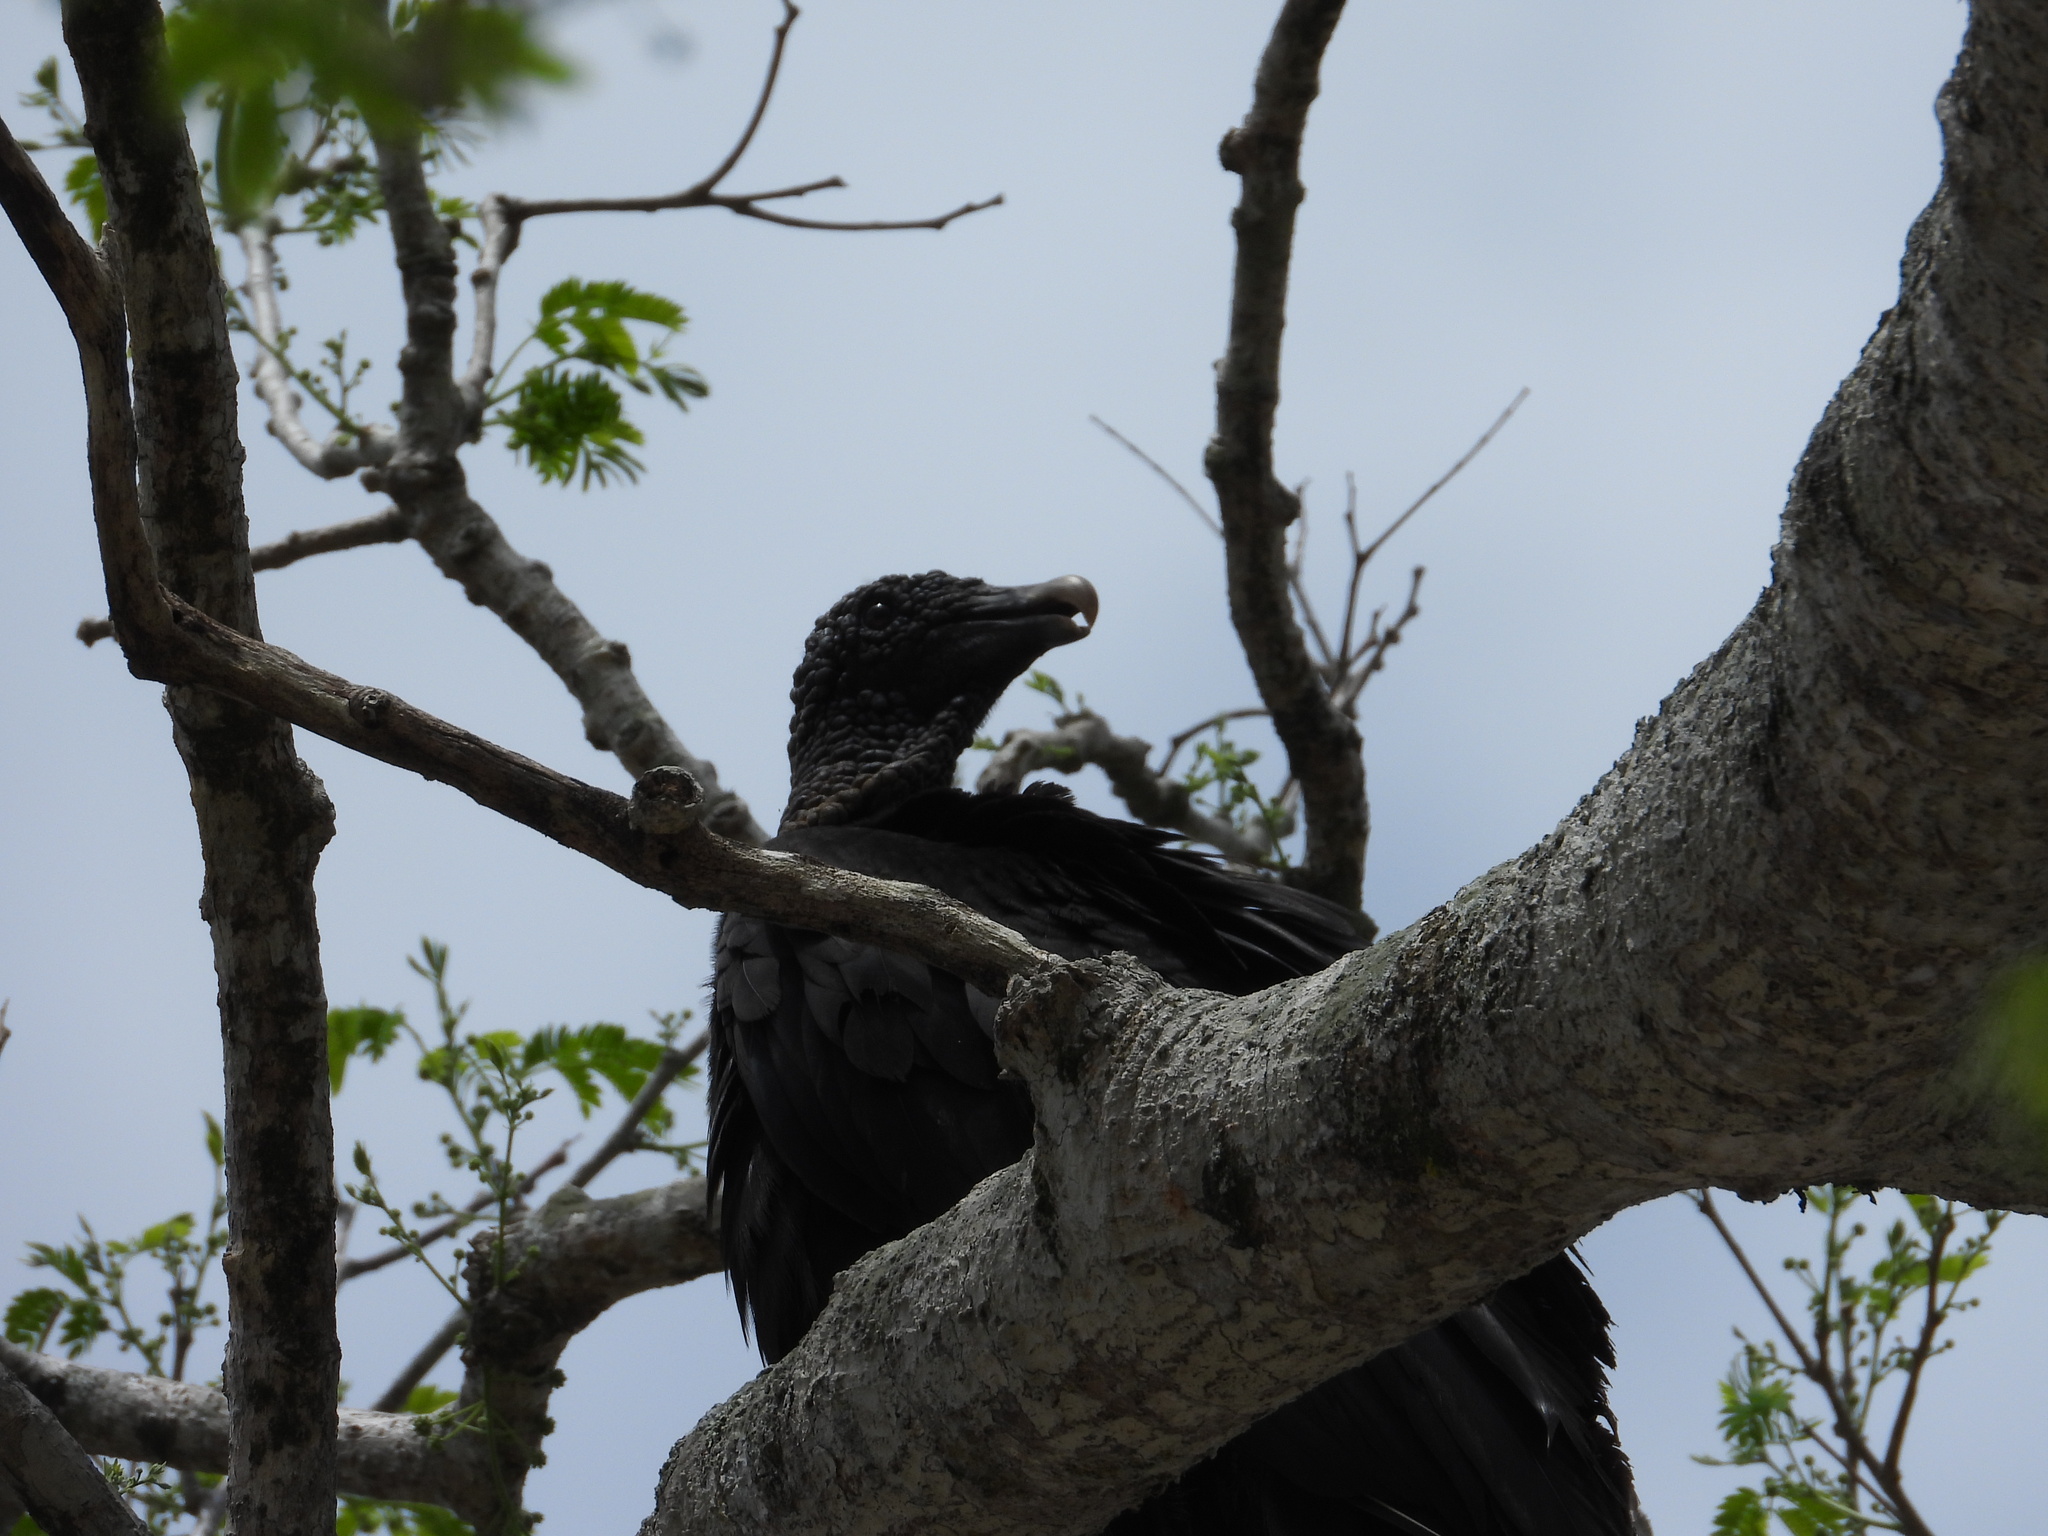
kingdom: Animalia
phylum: Chordata
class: Aves
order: Accipitriformes
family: Cathartidae
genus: Coragyps
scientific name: Coragyps atratus
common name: Black vulture
